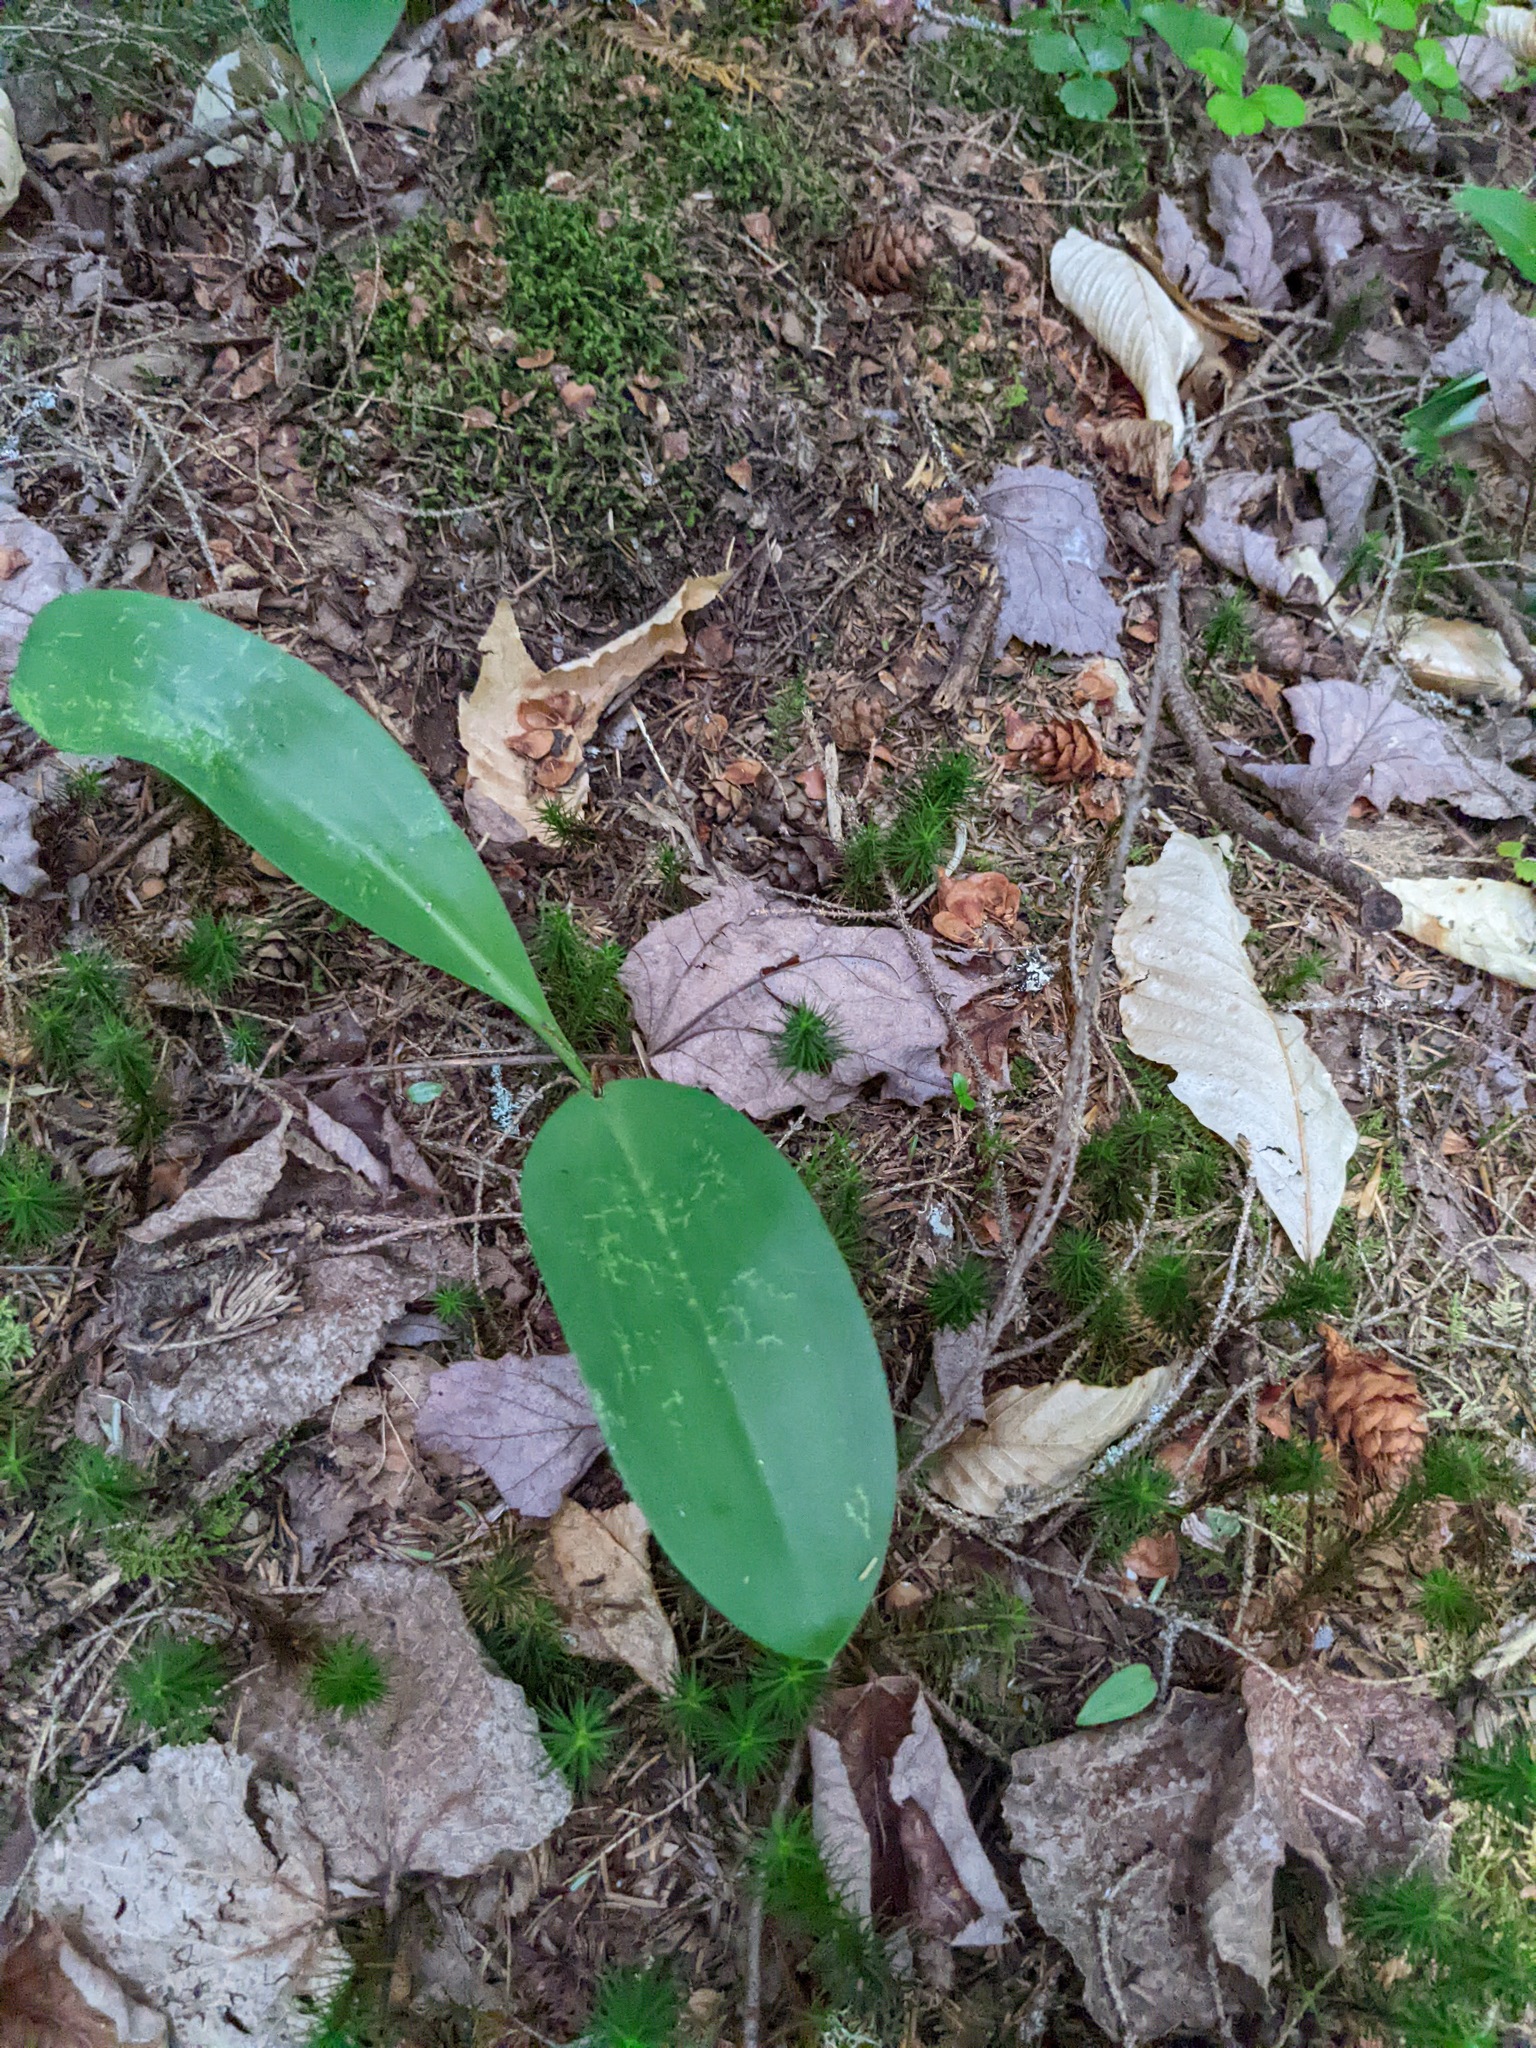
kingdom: Plantae
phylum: Tracheophyta
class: Liliopsida
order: Liliales
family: Liliaceae
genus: Clintonia
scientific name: Clintonia borealis
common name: Yellow clintonia
